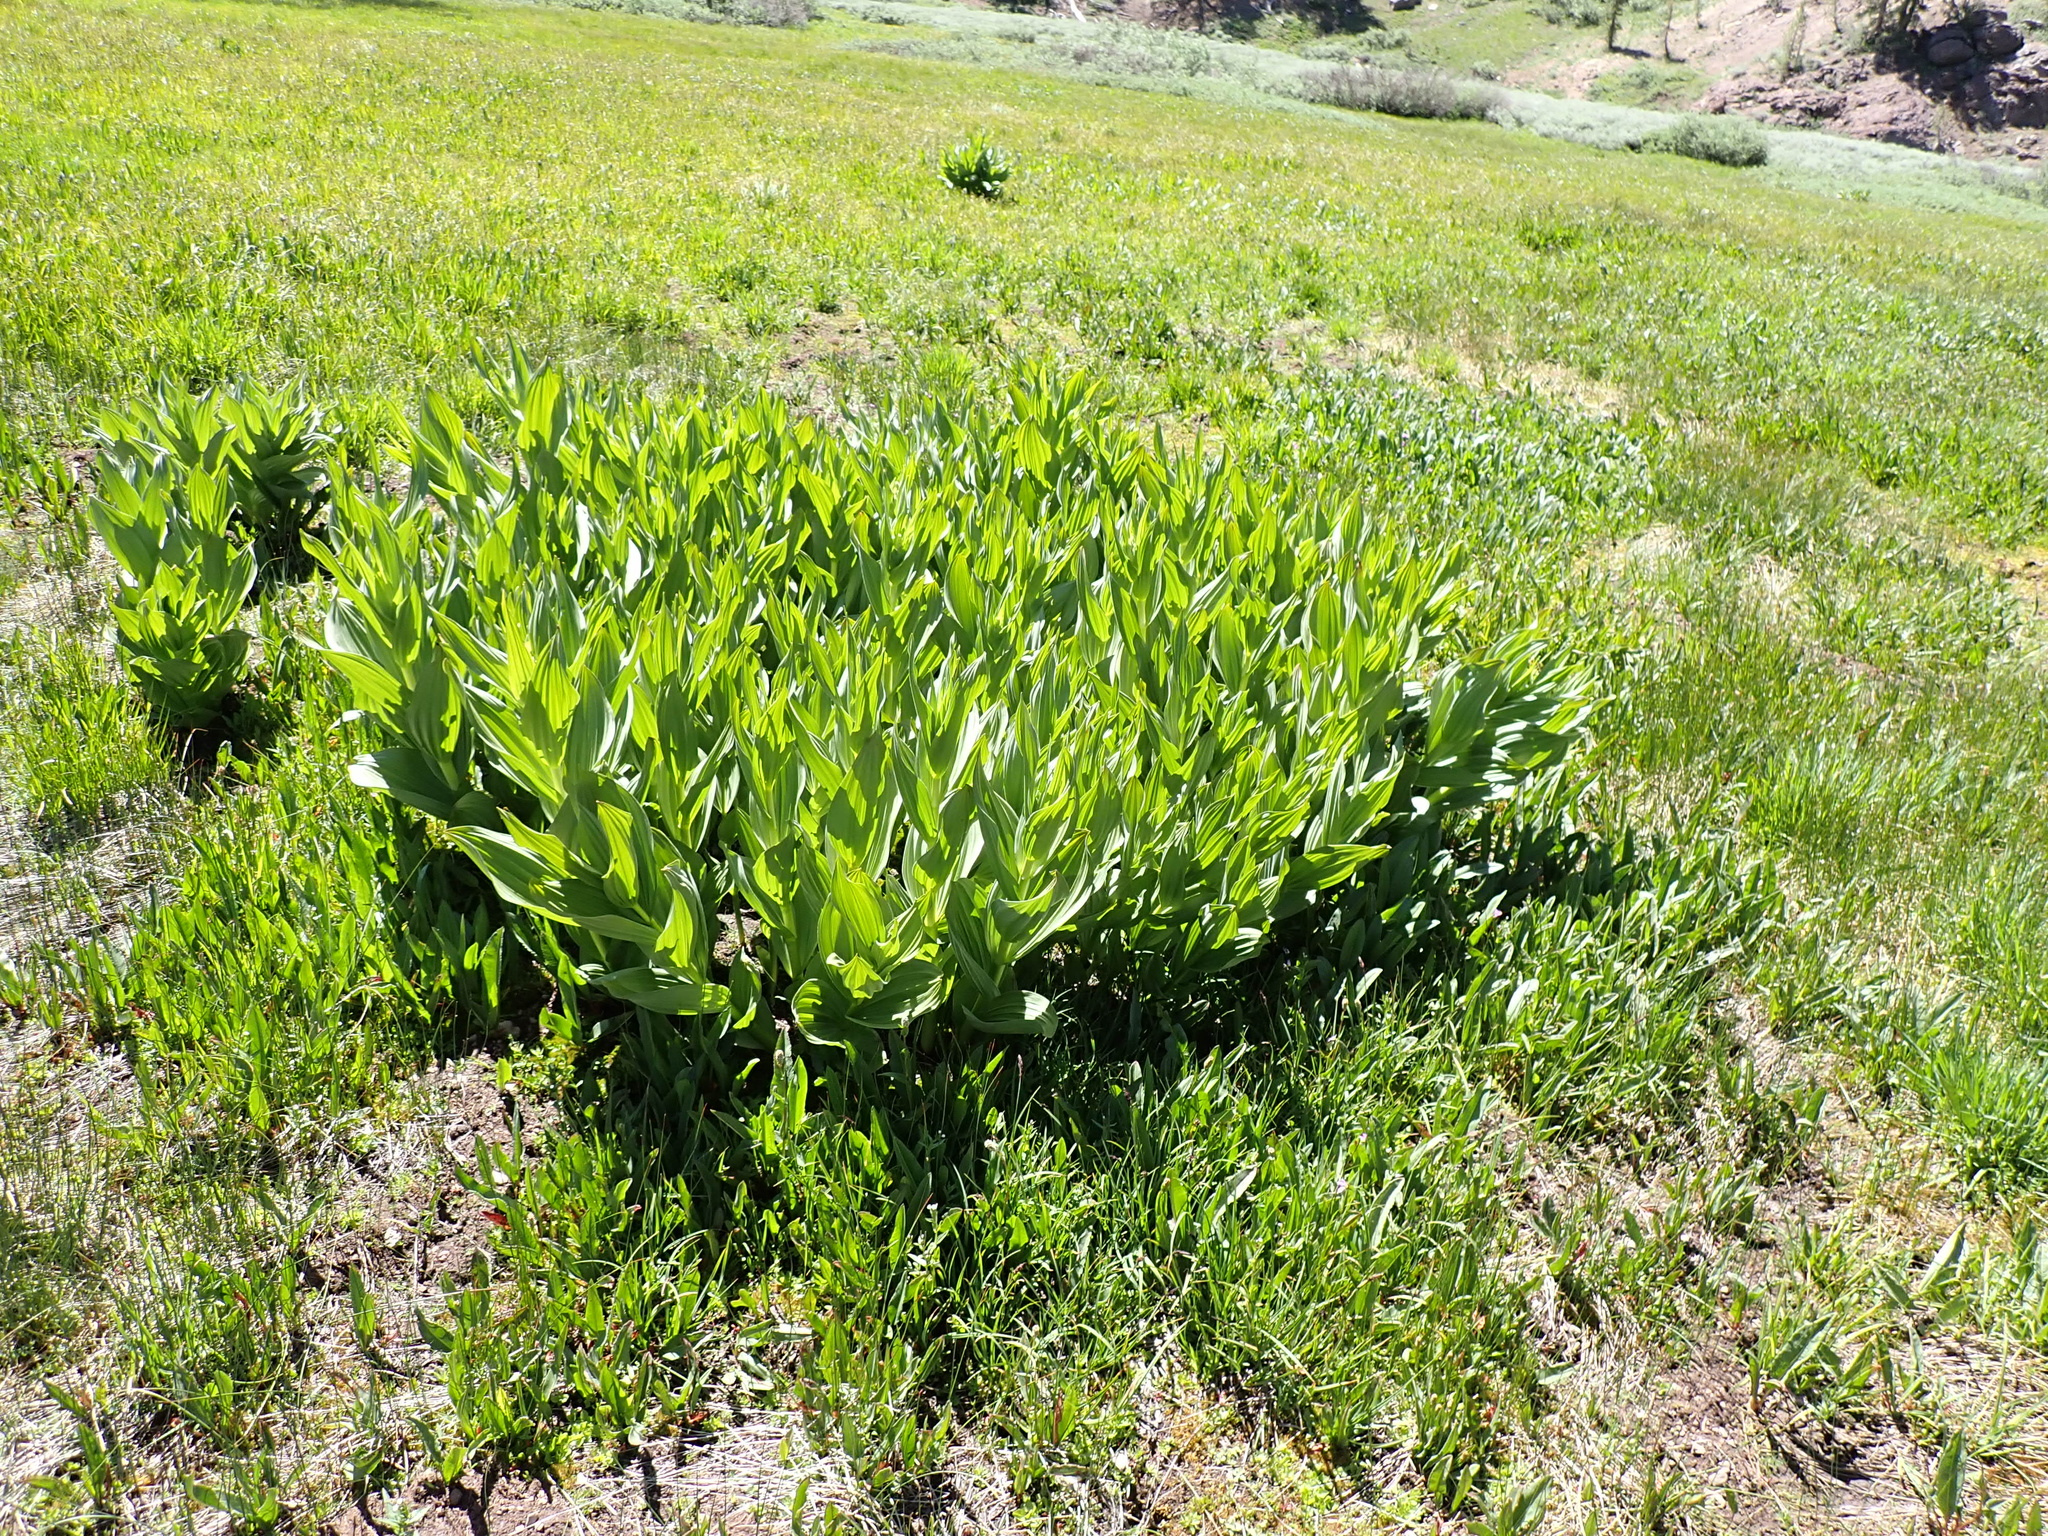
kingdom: Plantae
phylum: Tracheophyta
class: Liliopsida
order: Liliales
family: Melanthiaceae
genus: Veratrum
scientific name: Veratrum californicum
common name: California veratrum
